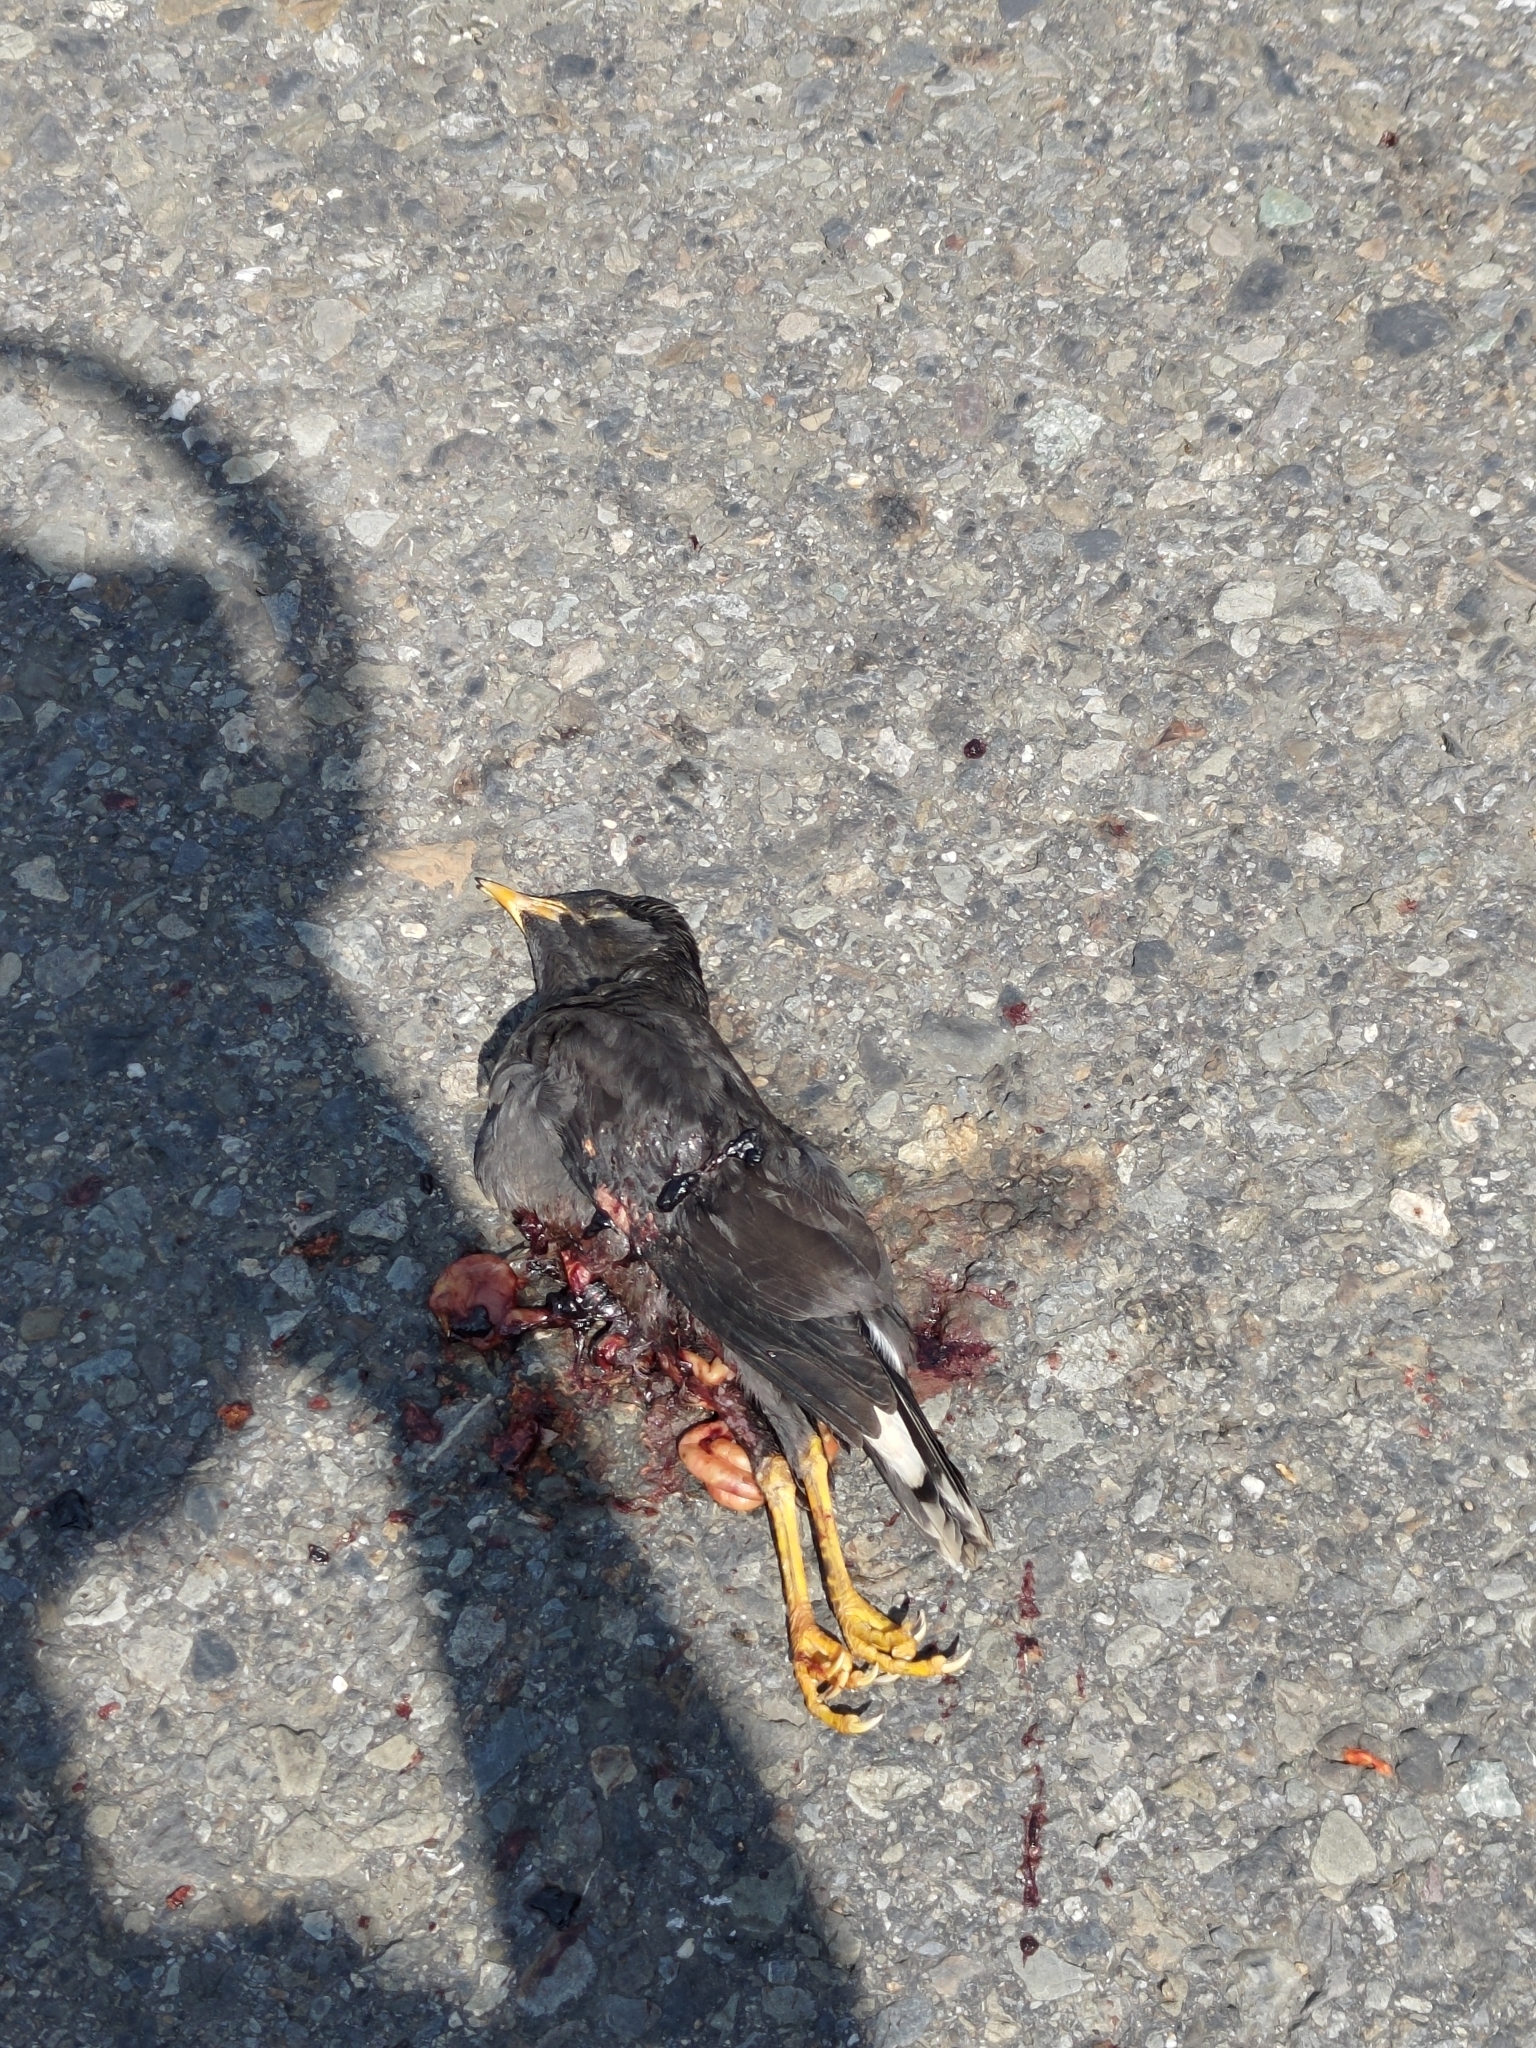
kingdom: Animalia
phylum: Chordata
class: Aves
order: Passeriformes
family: Sturnidae
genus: Acridotheres
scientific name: Acridotheres javanicus
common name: Javan myna
